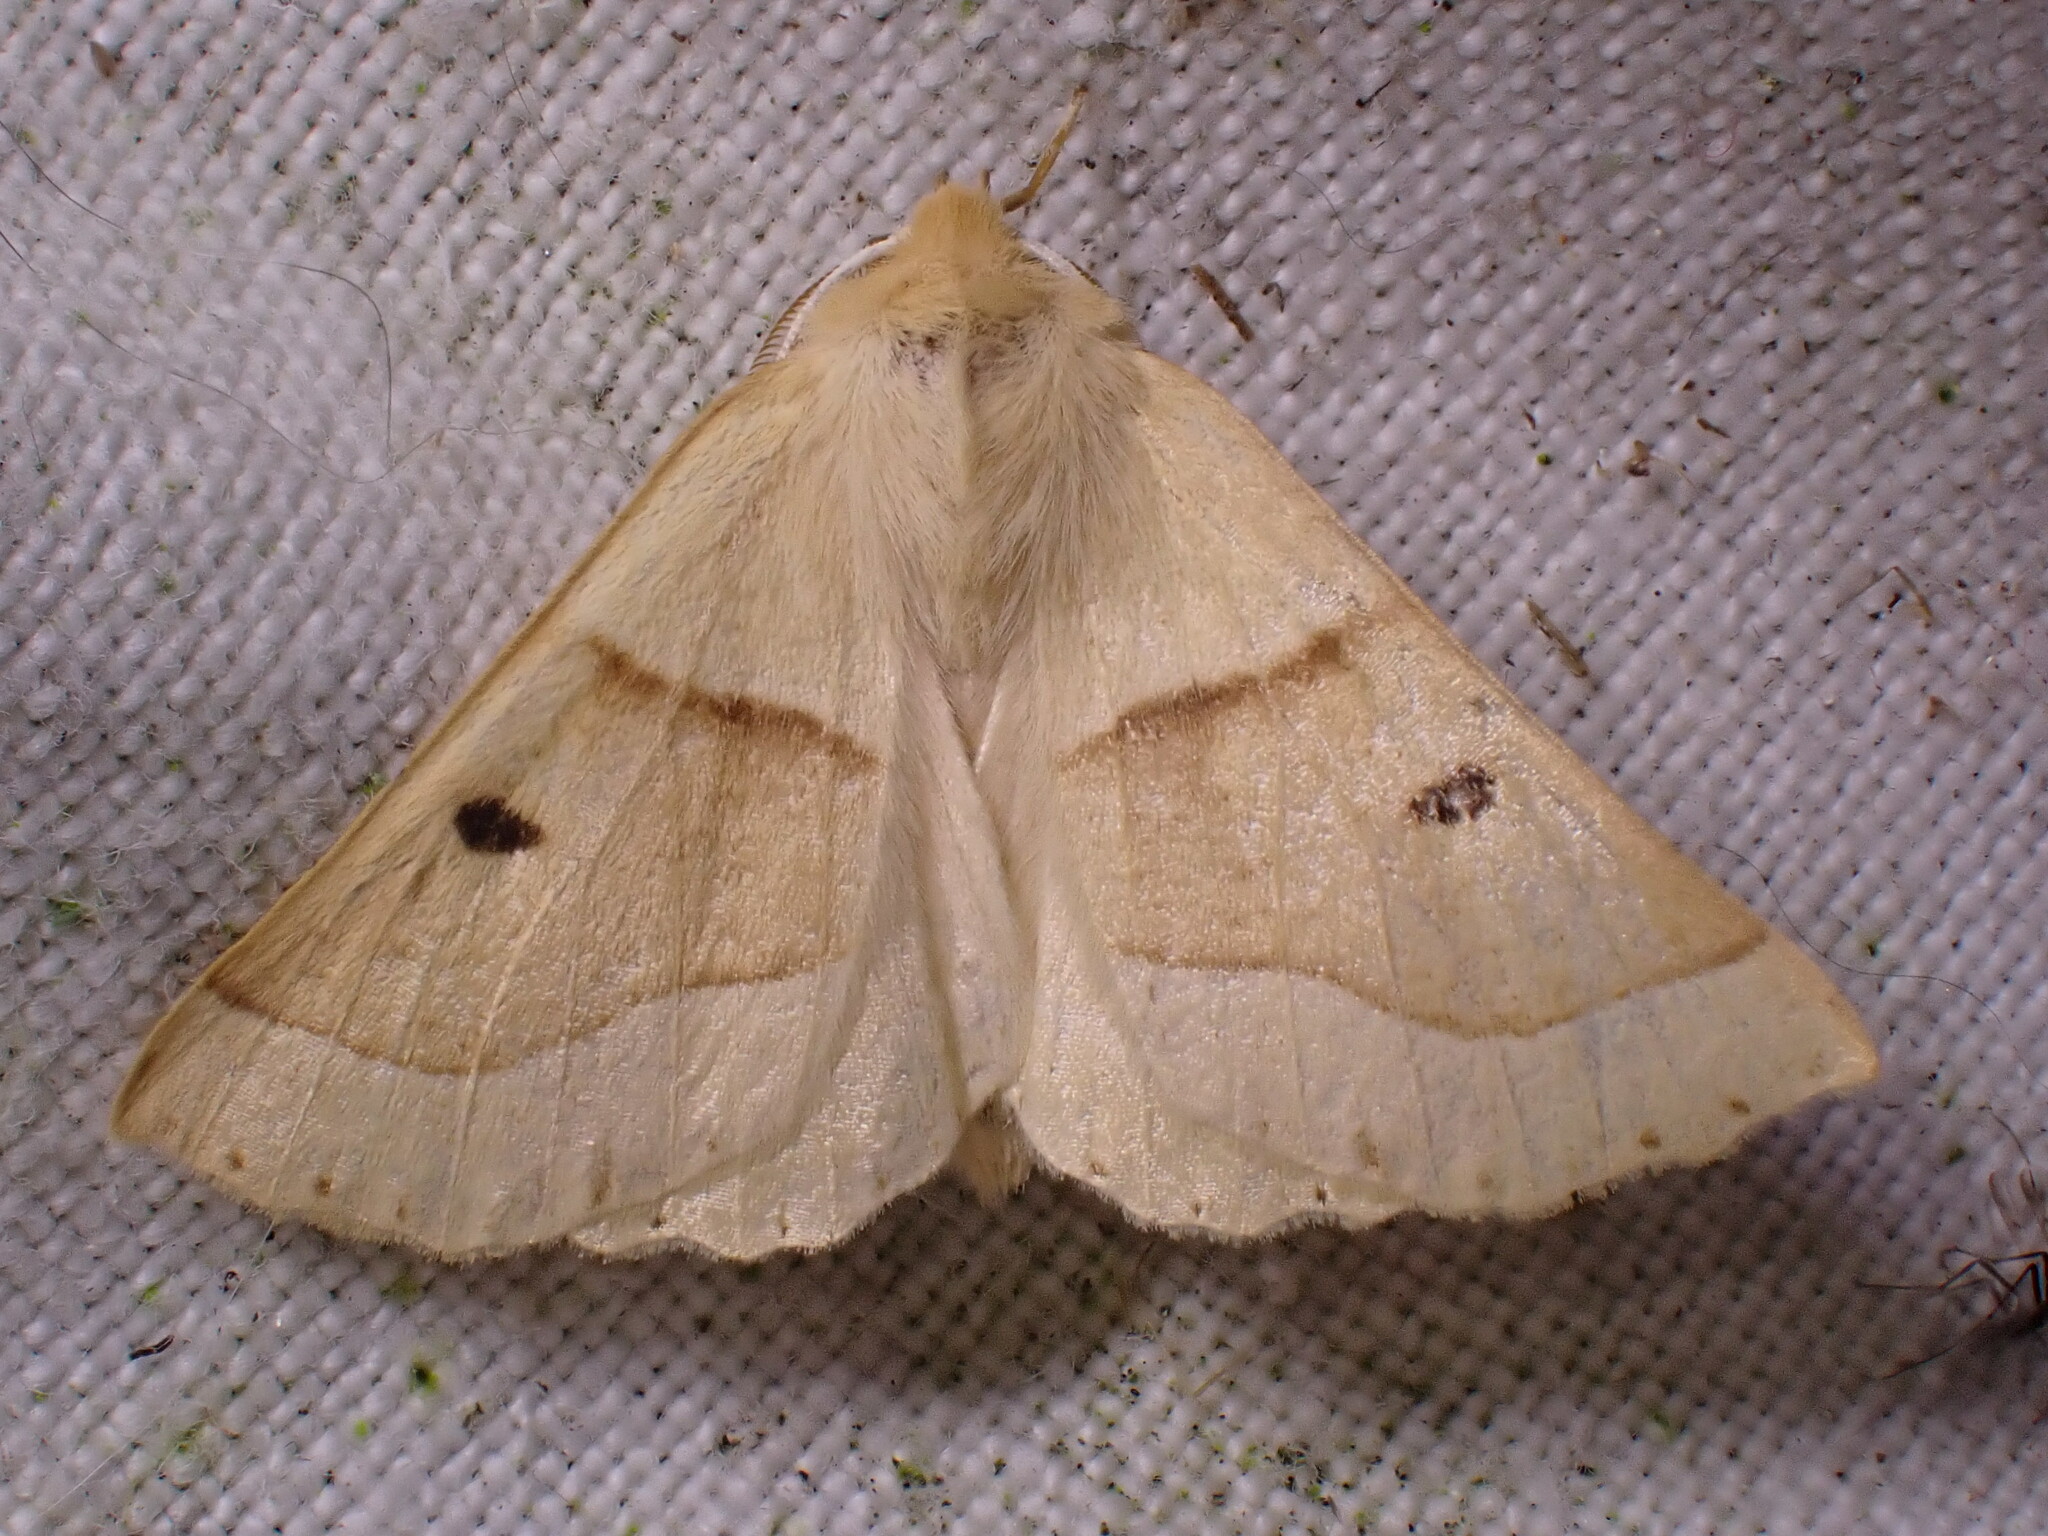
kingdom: Animalia
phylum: Arthropoda
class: Insecta
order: Lepidoptera
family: Geometridae
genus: Crocallis
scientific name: Crocallis elinguaria
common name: Scalloped oak
